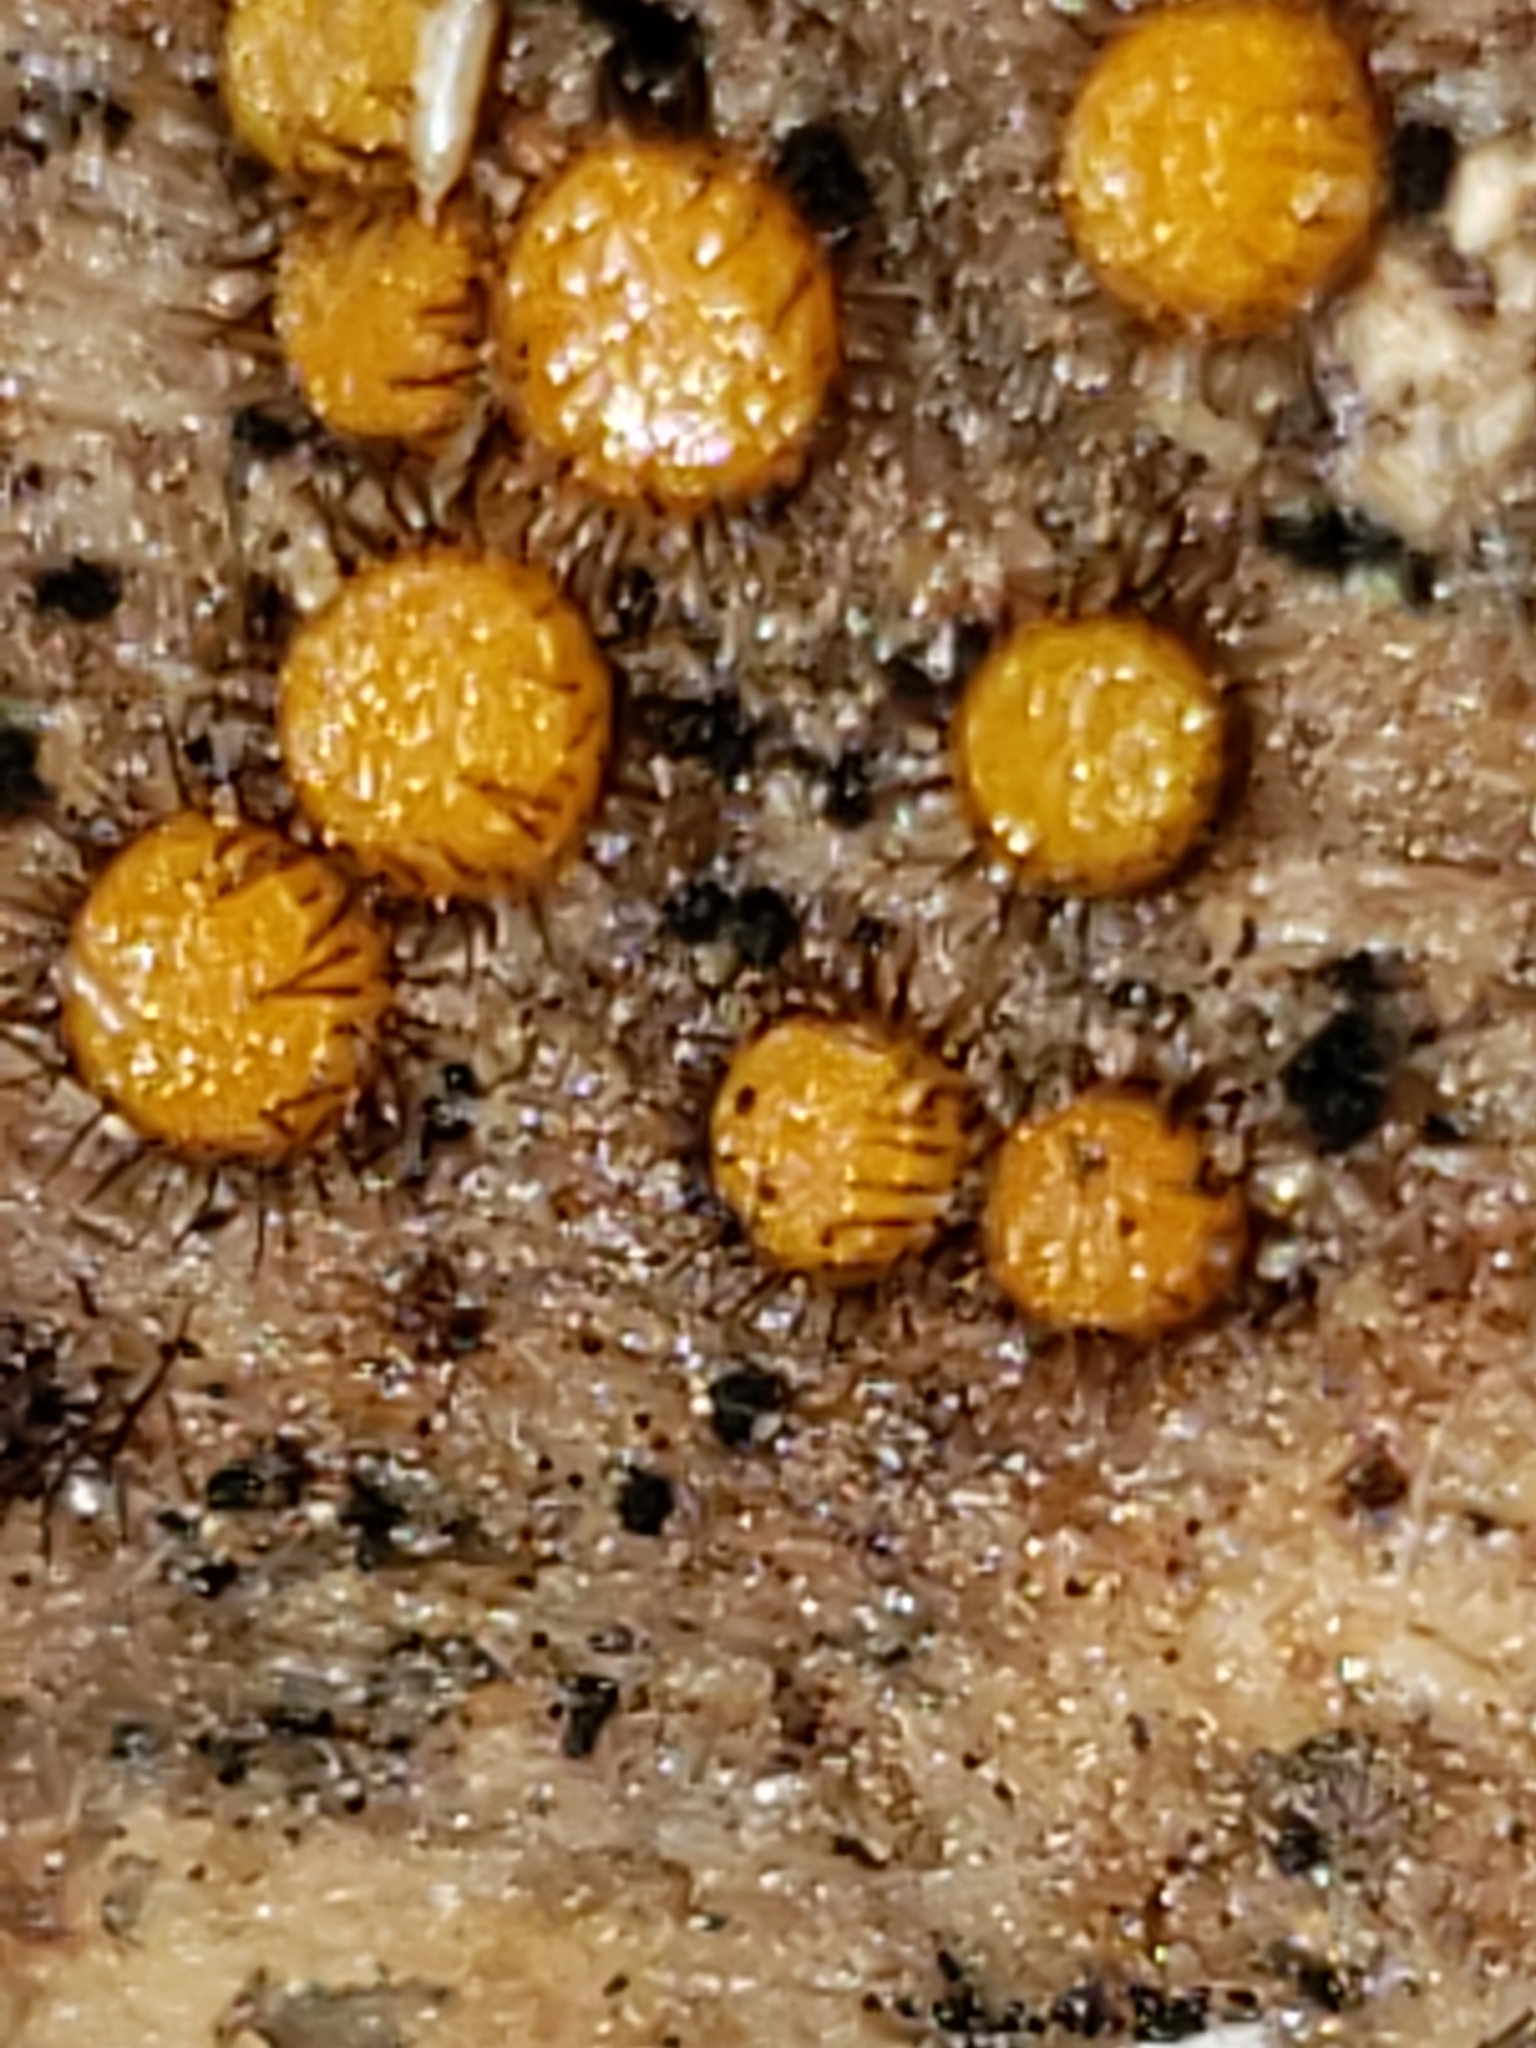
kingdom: Fungi
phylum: Ascomycota
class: Pezizomycetes
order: Pezizales
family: Pyronemataceae
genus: Scutellinia
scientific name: Scutellinia setosa
